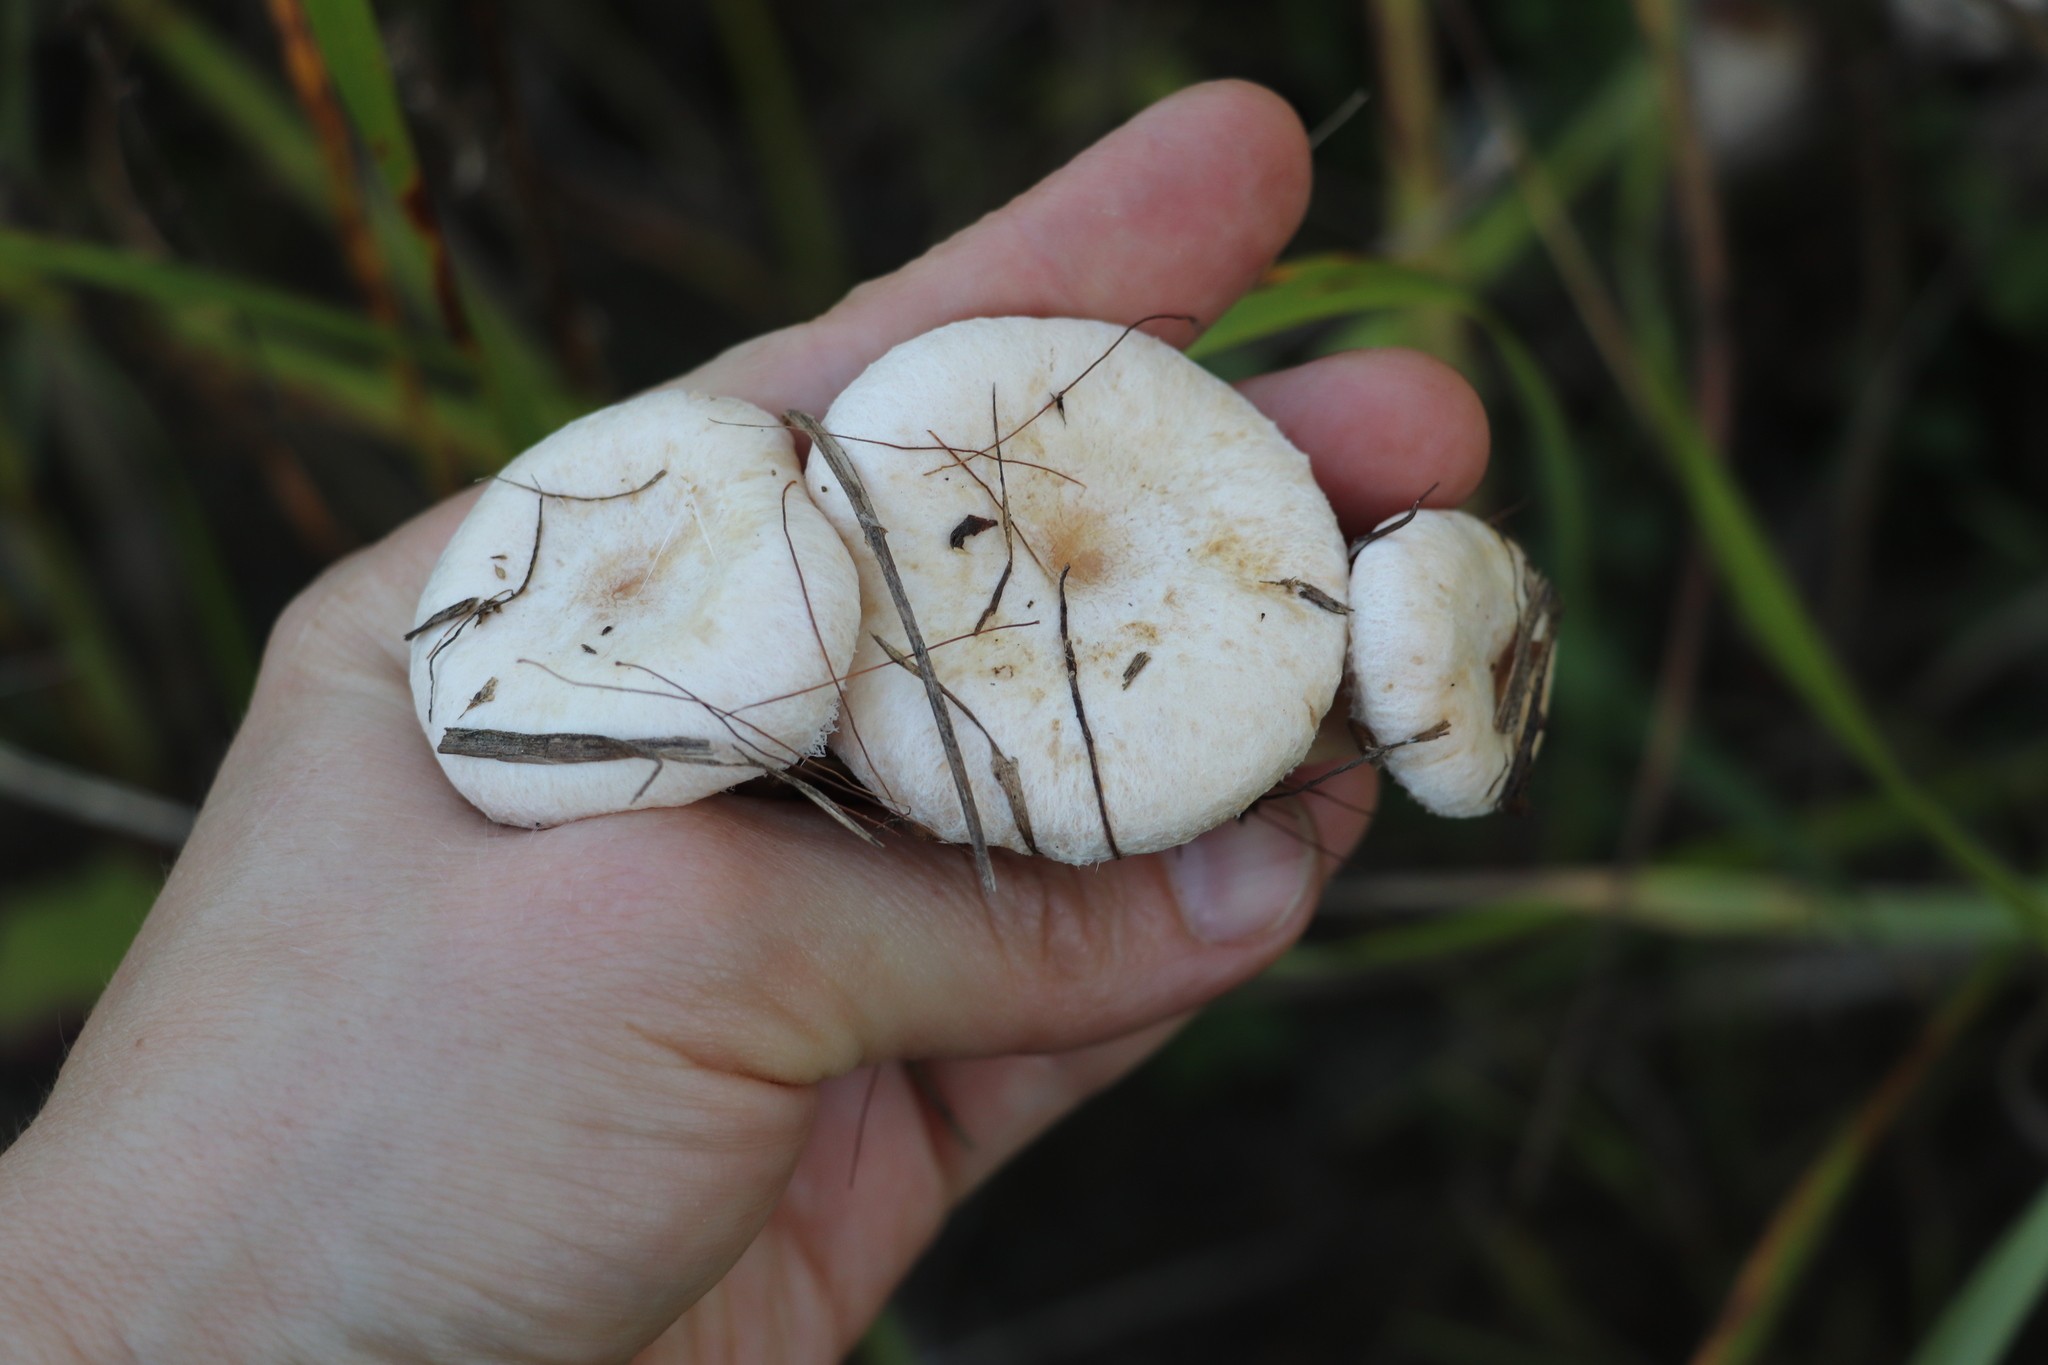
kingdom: Fungi
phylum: Basidiomycota
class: Agaricomycetes
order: Russulales
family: Russulaceae
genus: Lactarius
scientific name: Lactarius pubescens
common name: Bearded milkcap
